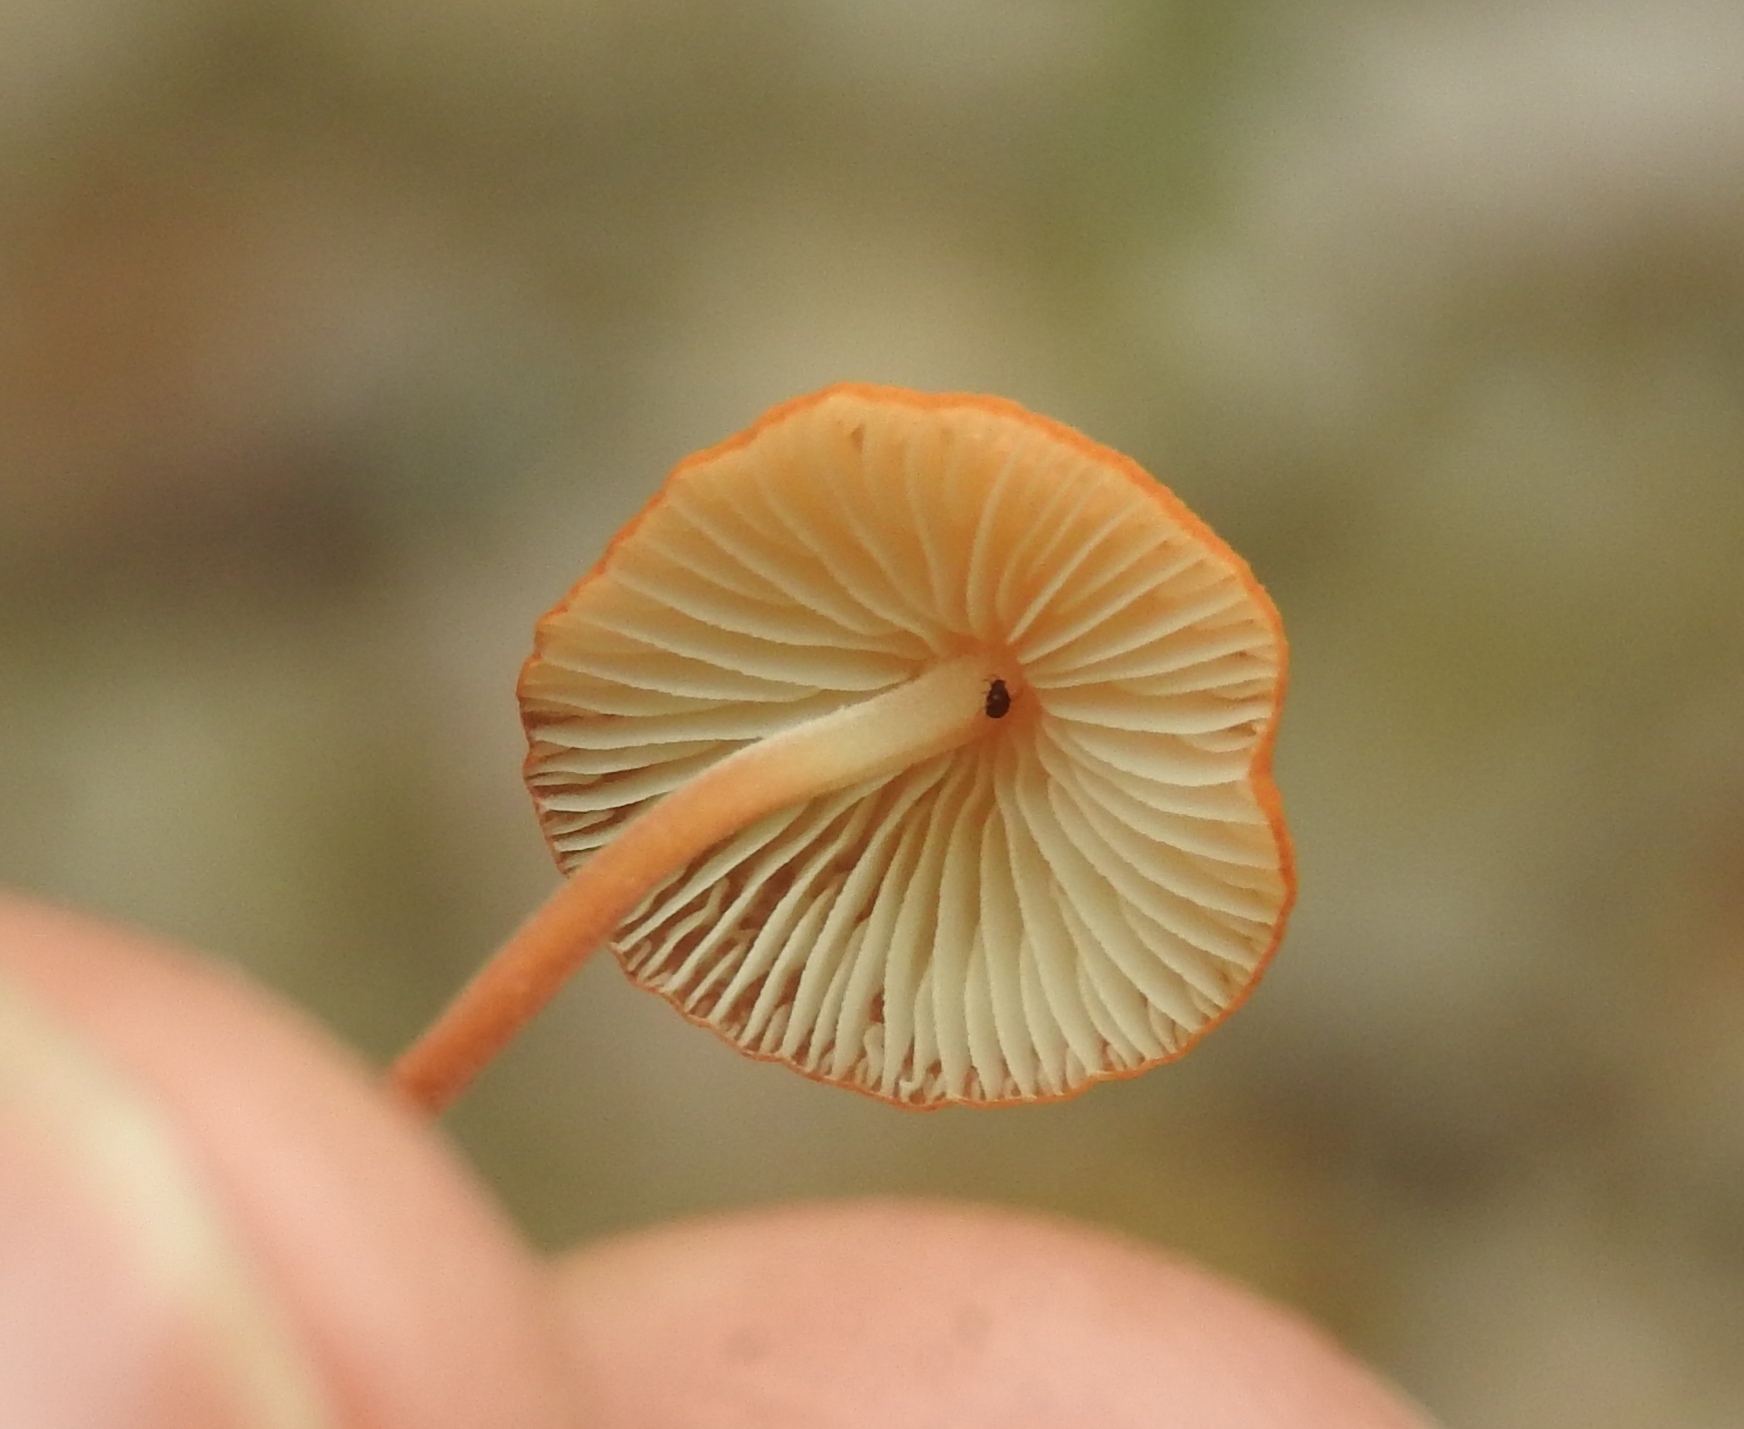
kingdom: Fungi
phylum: Basidiomycota
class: Agaricomycetes
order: Agaricales
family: Marasmiaceae
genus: Marasmius
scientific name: Marasmius spegazzinii
